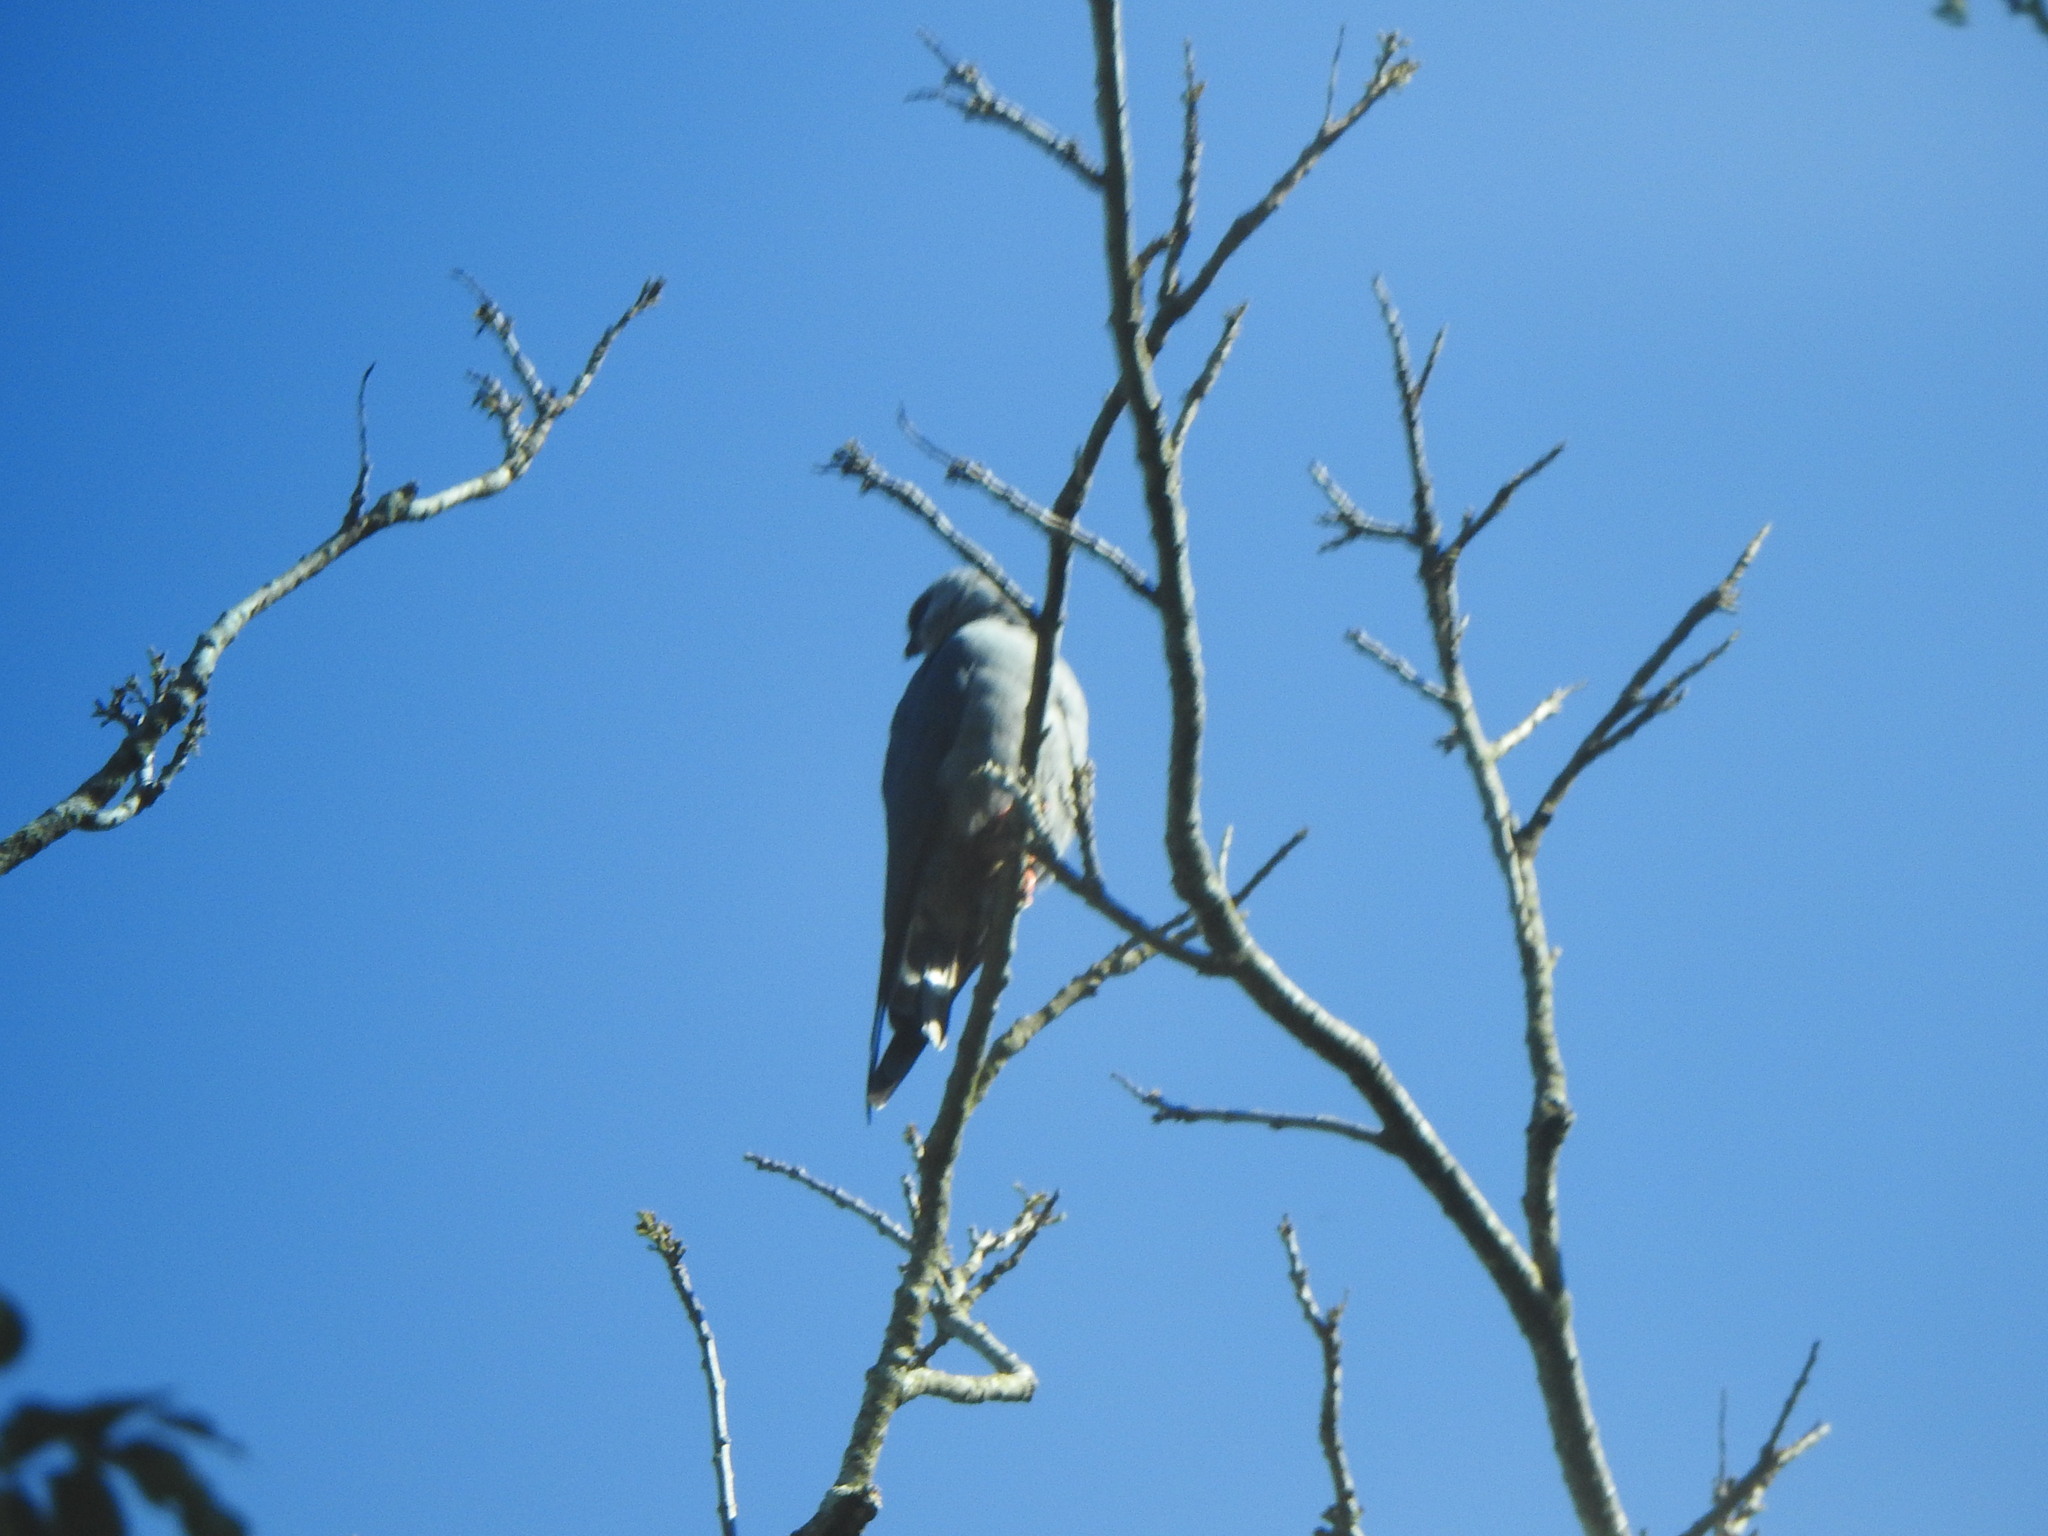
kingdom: Animalia
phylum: Chordata
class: Aves
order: Accipitriformes
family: Accipitridae
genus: Ictinia
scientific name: Ictinia plumbea
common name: Plumbeous kite
